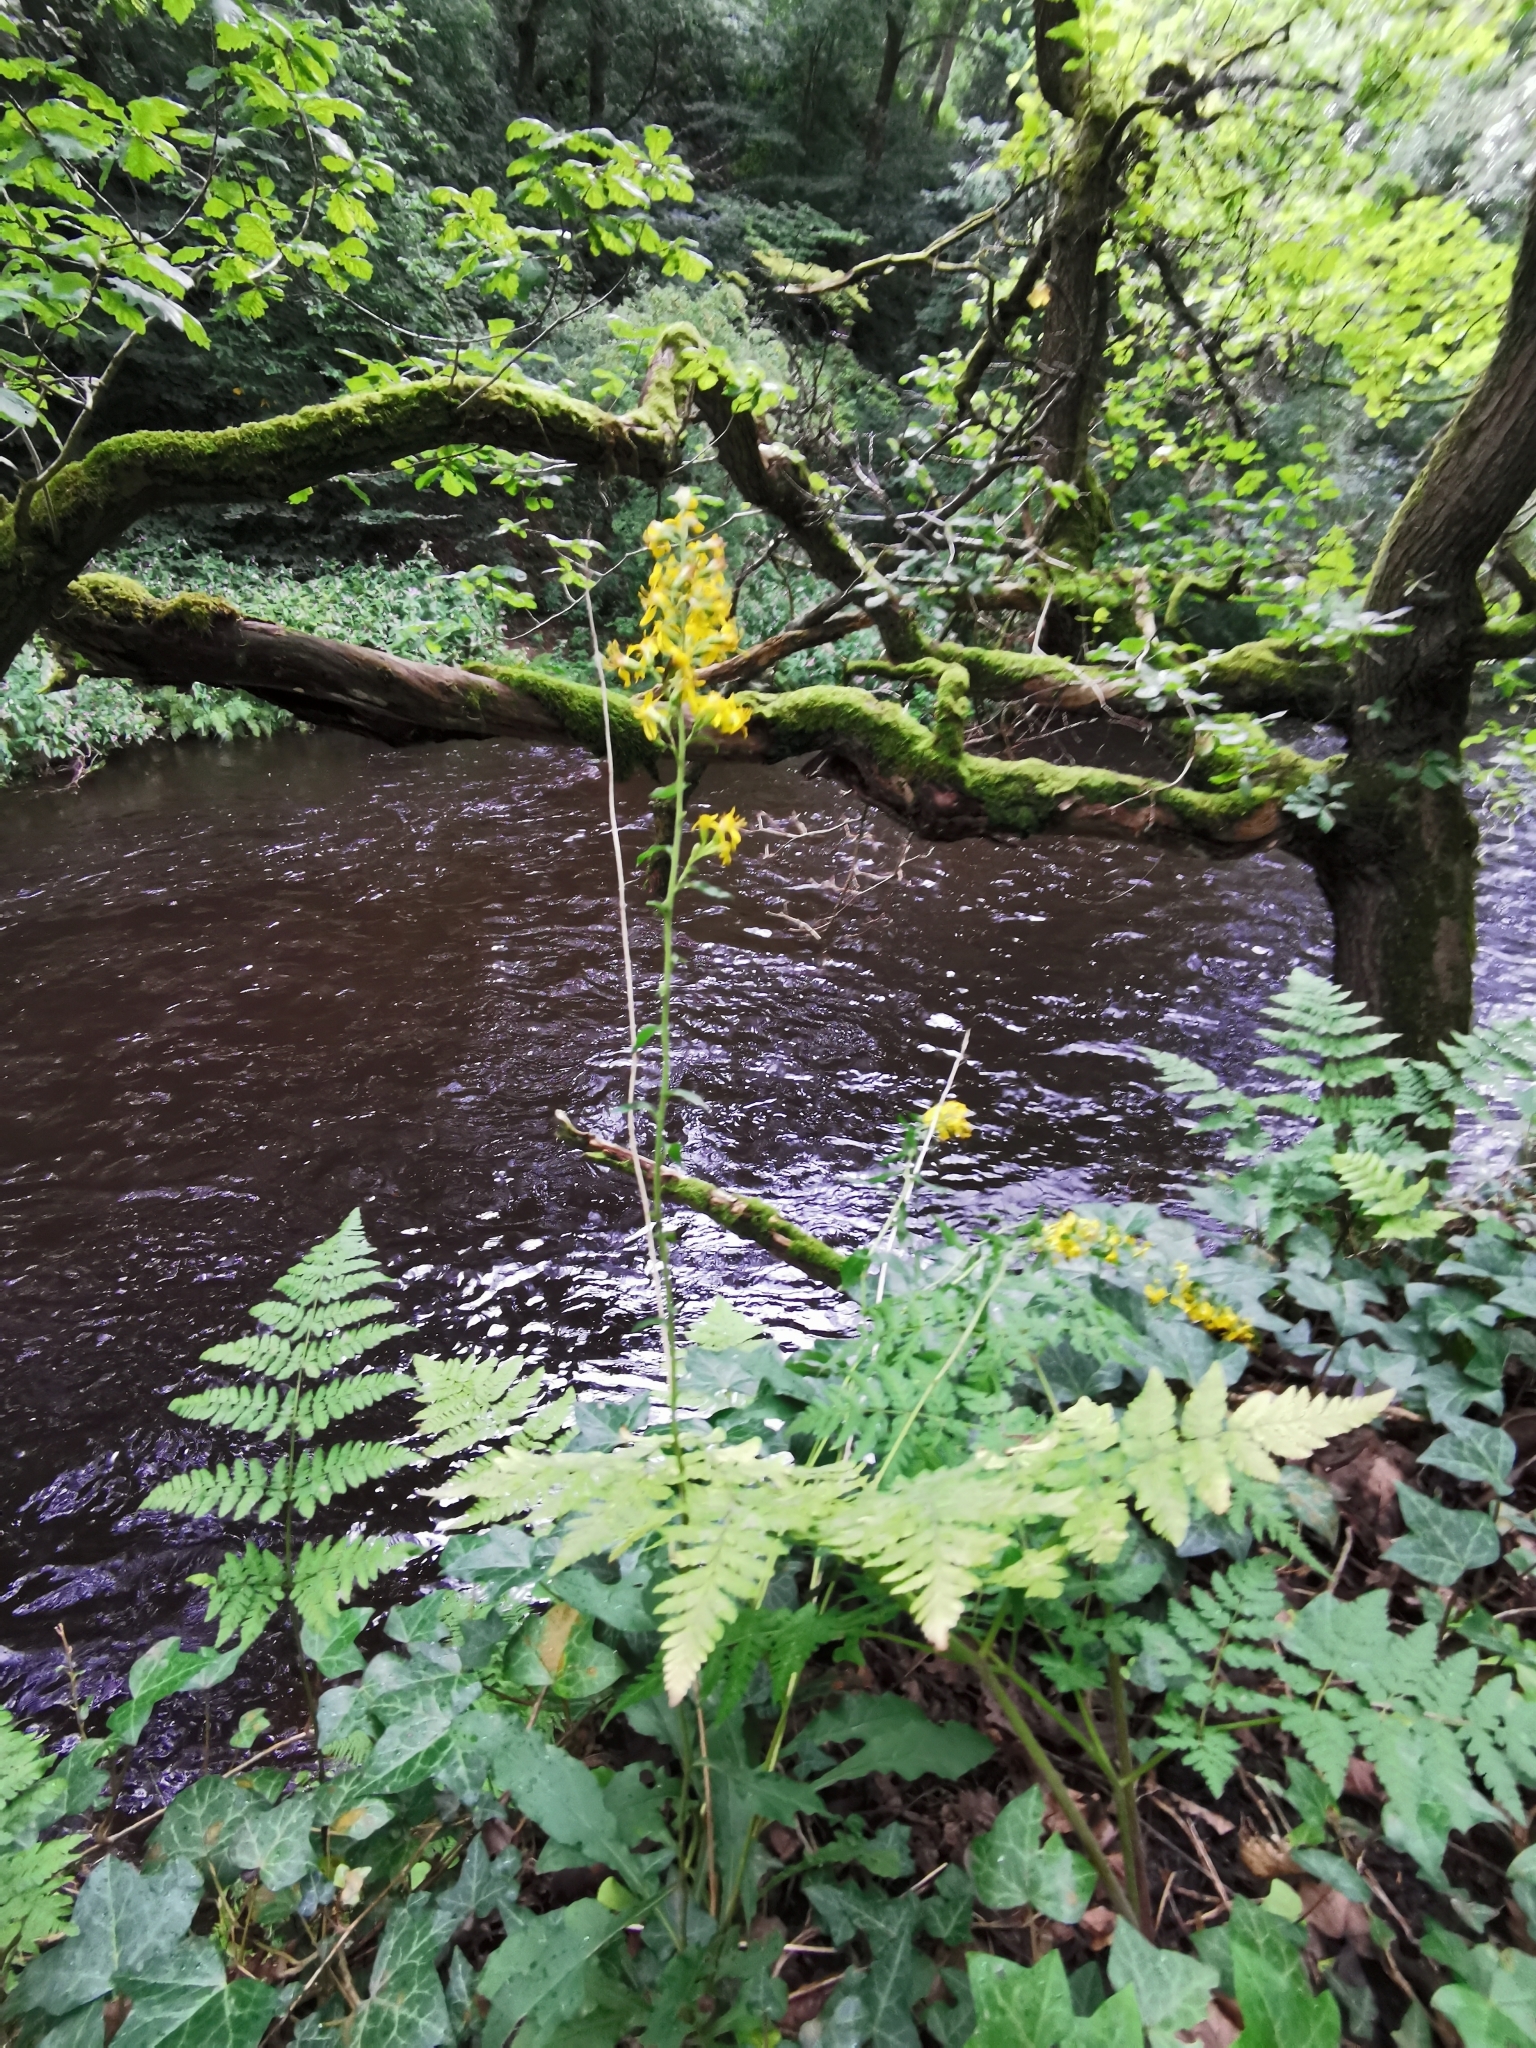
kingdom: Plantae
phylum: Tracheophyta
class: Magnoliopsida
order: Asterales
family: Asteraceae
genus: Solidago
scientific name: Solidago virgaurea
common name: Goldenrod
